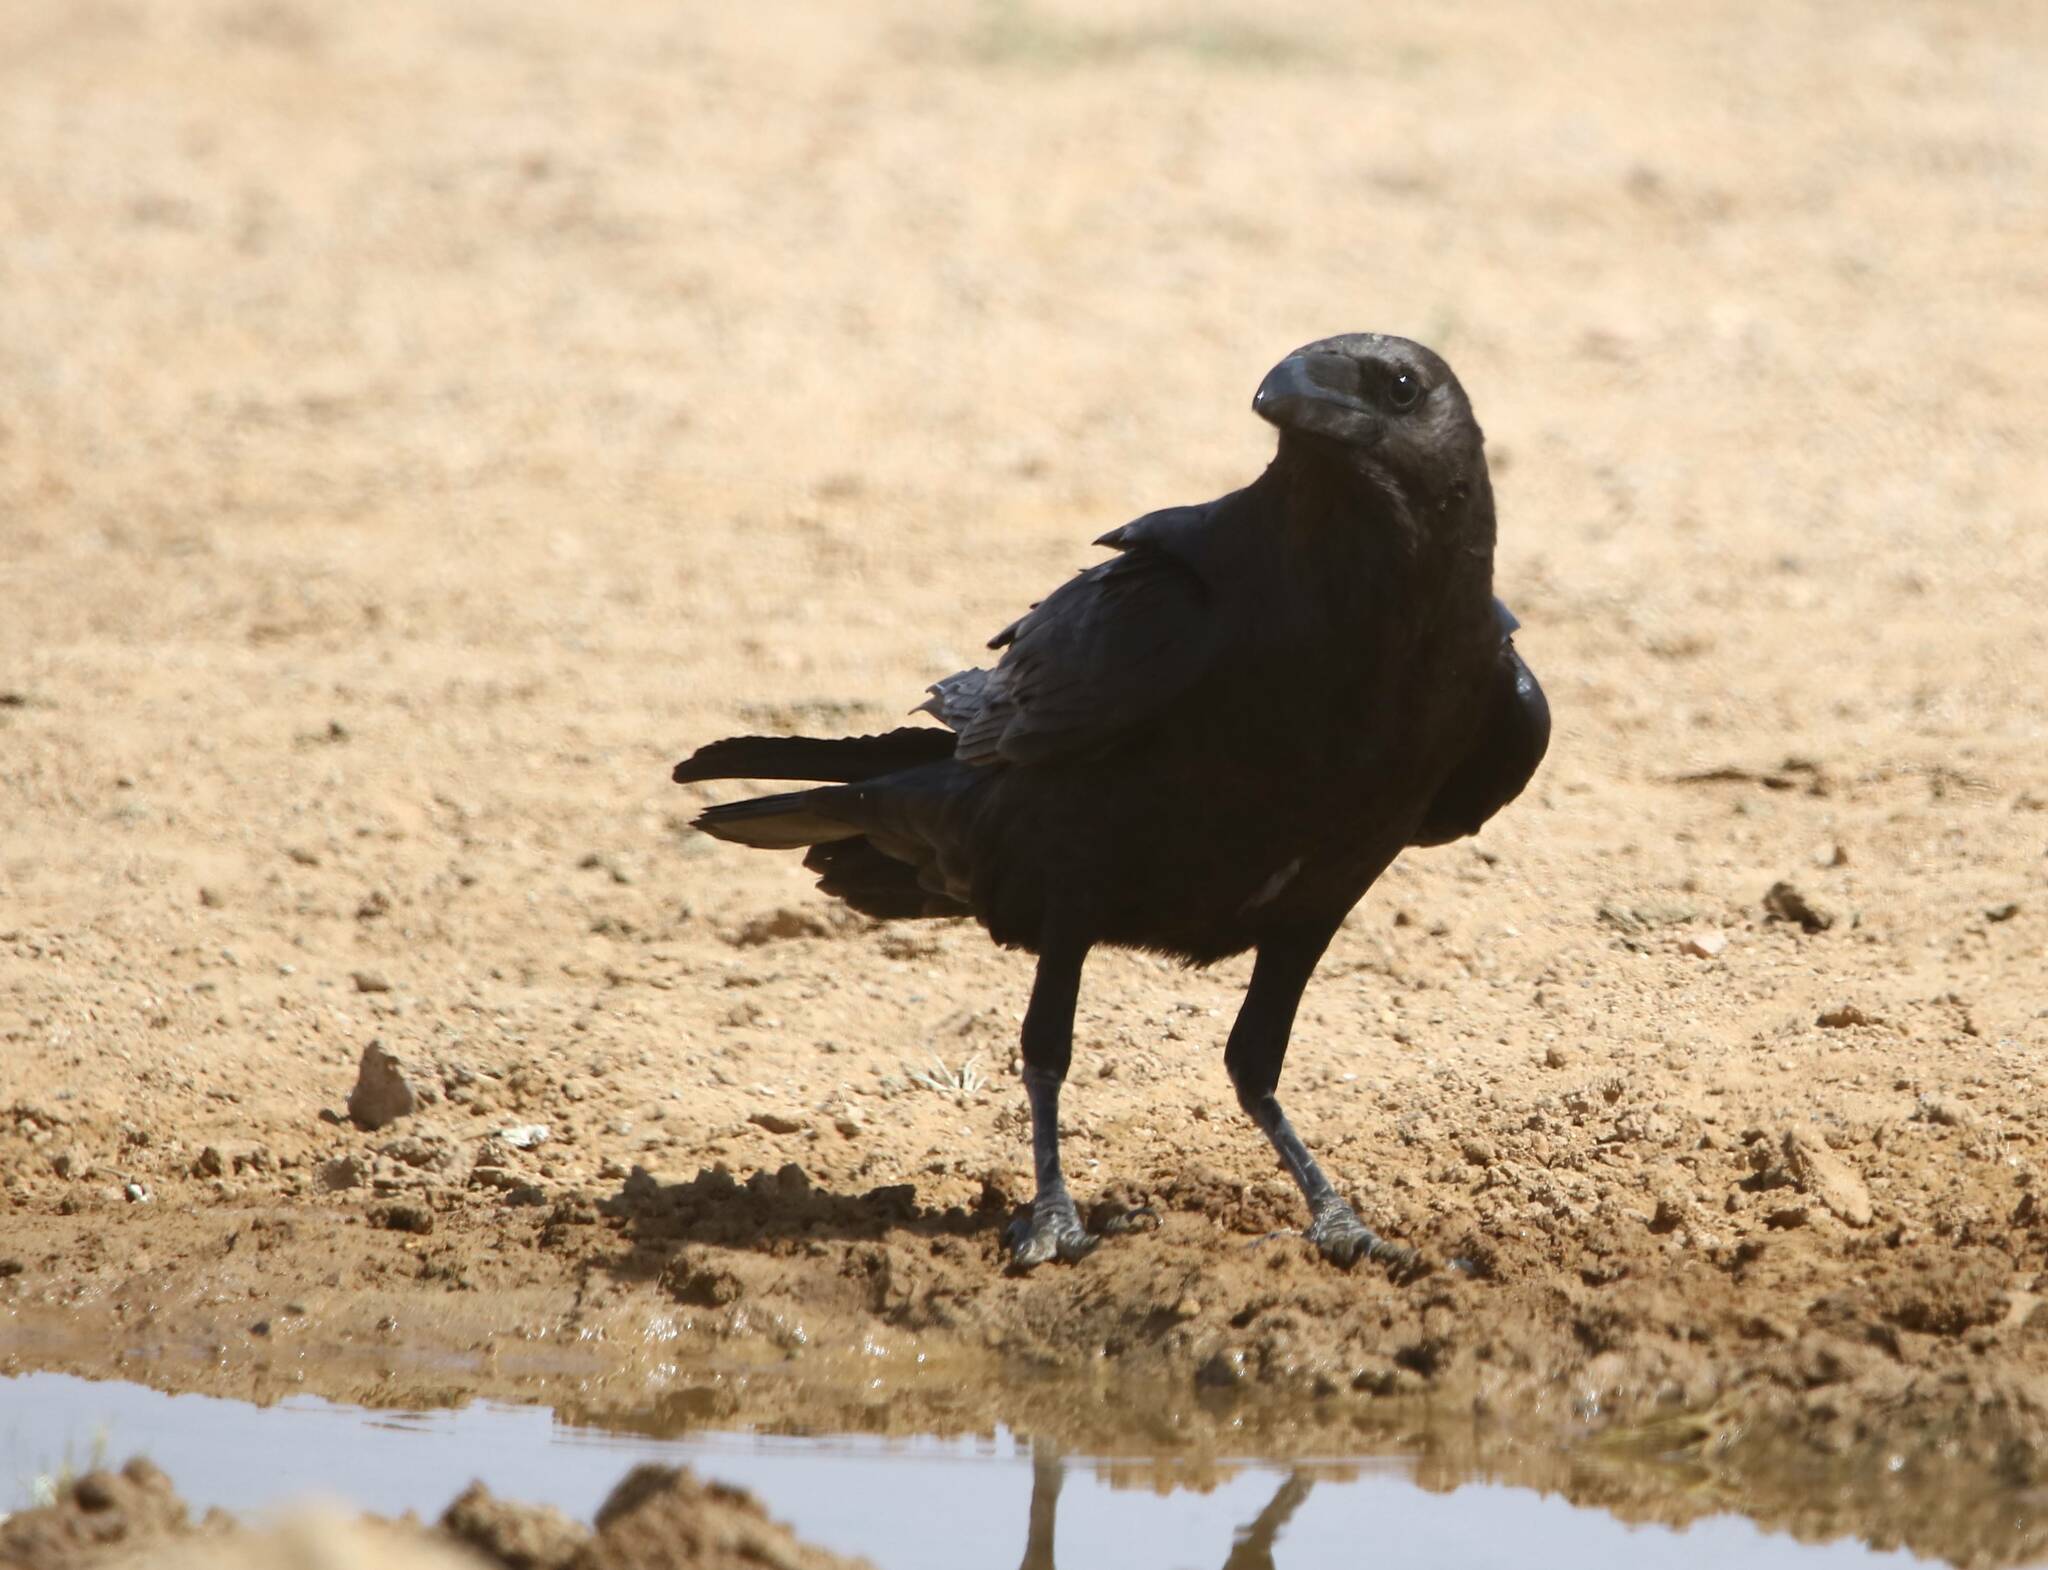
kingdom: Animalia
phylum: Chordata
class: Aves
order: Passeriformes
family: Corvidae
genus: Corvus
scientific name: Corvus ruficollis
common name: Brown-necked raven
